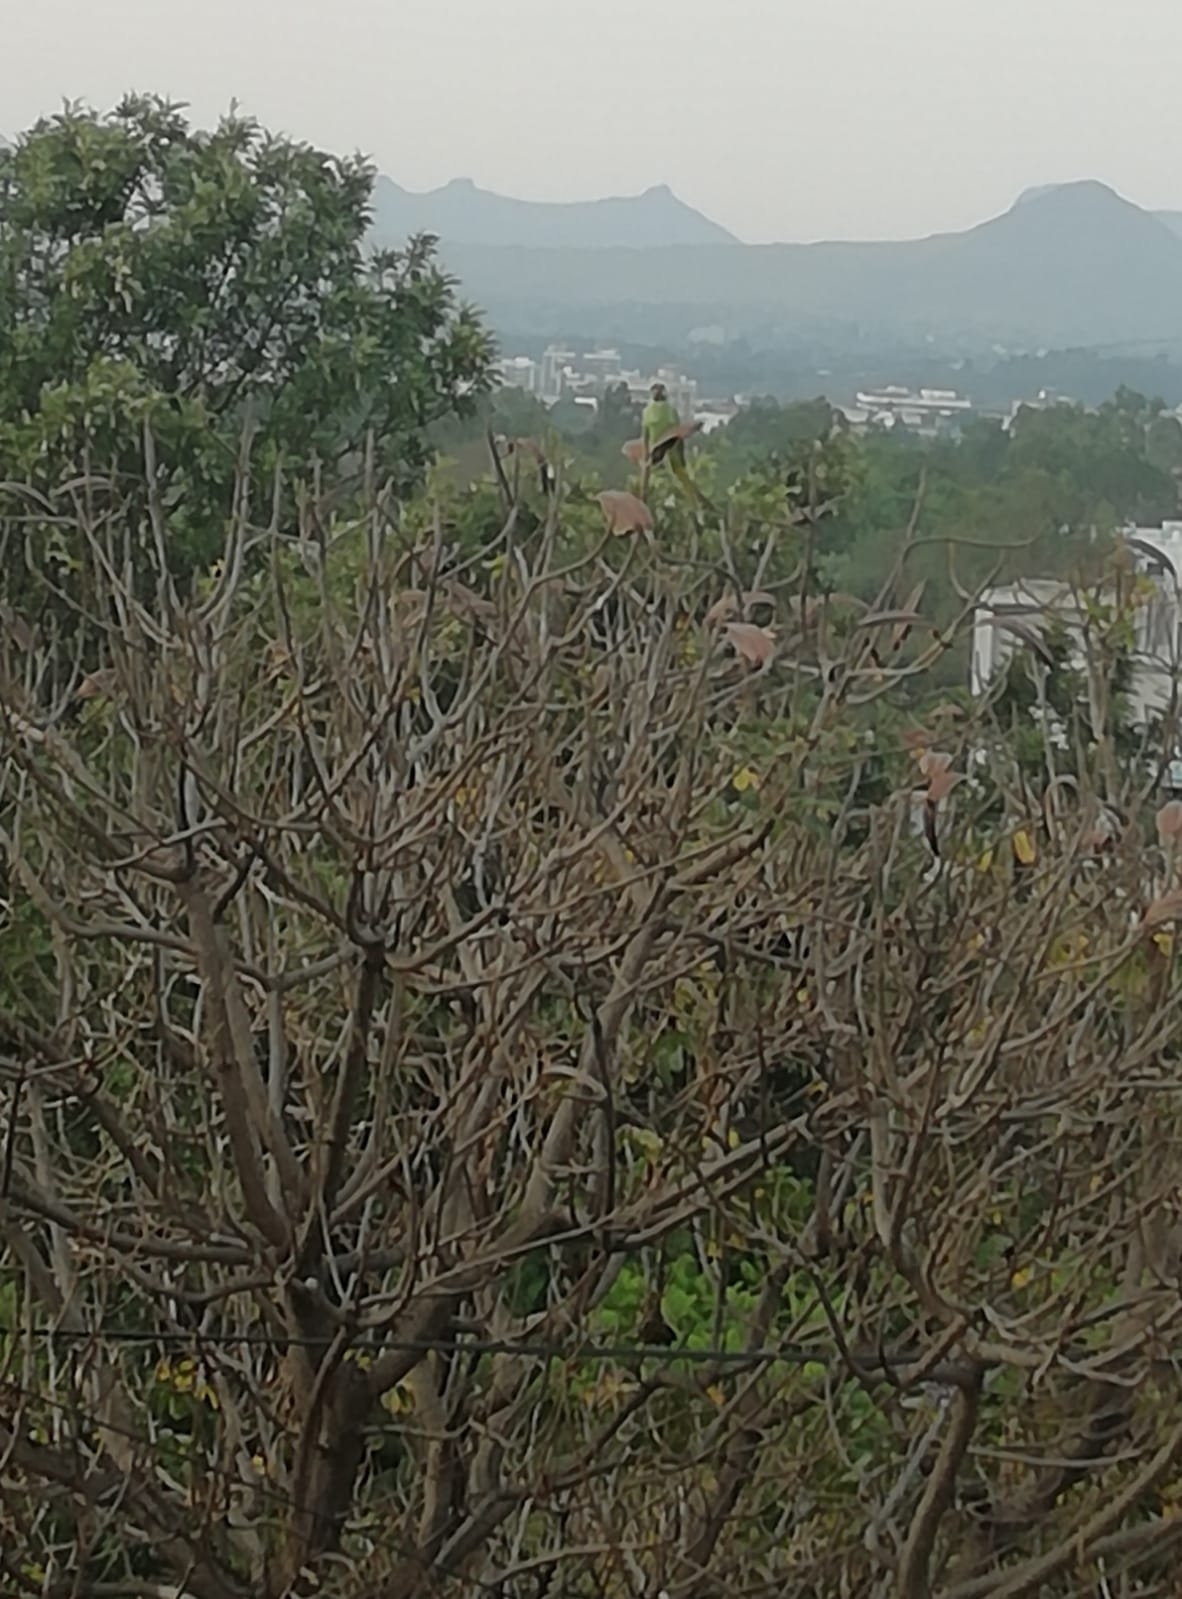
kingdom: Animalia
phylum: Chordata
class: Aves
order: Psittaciformes
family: Psittacidae
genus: Psittacula
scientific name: Psittacula cyanocephala
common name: Plum-headed parakeet
